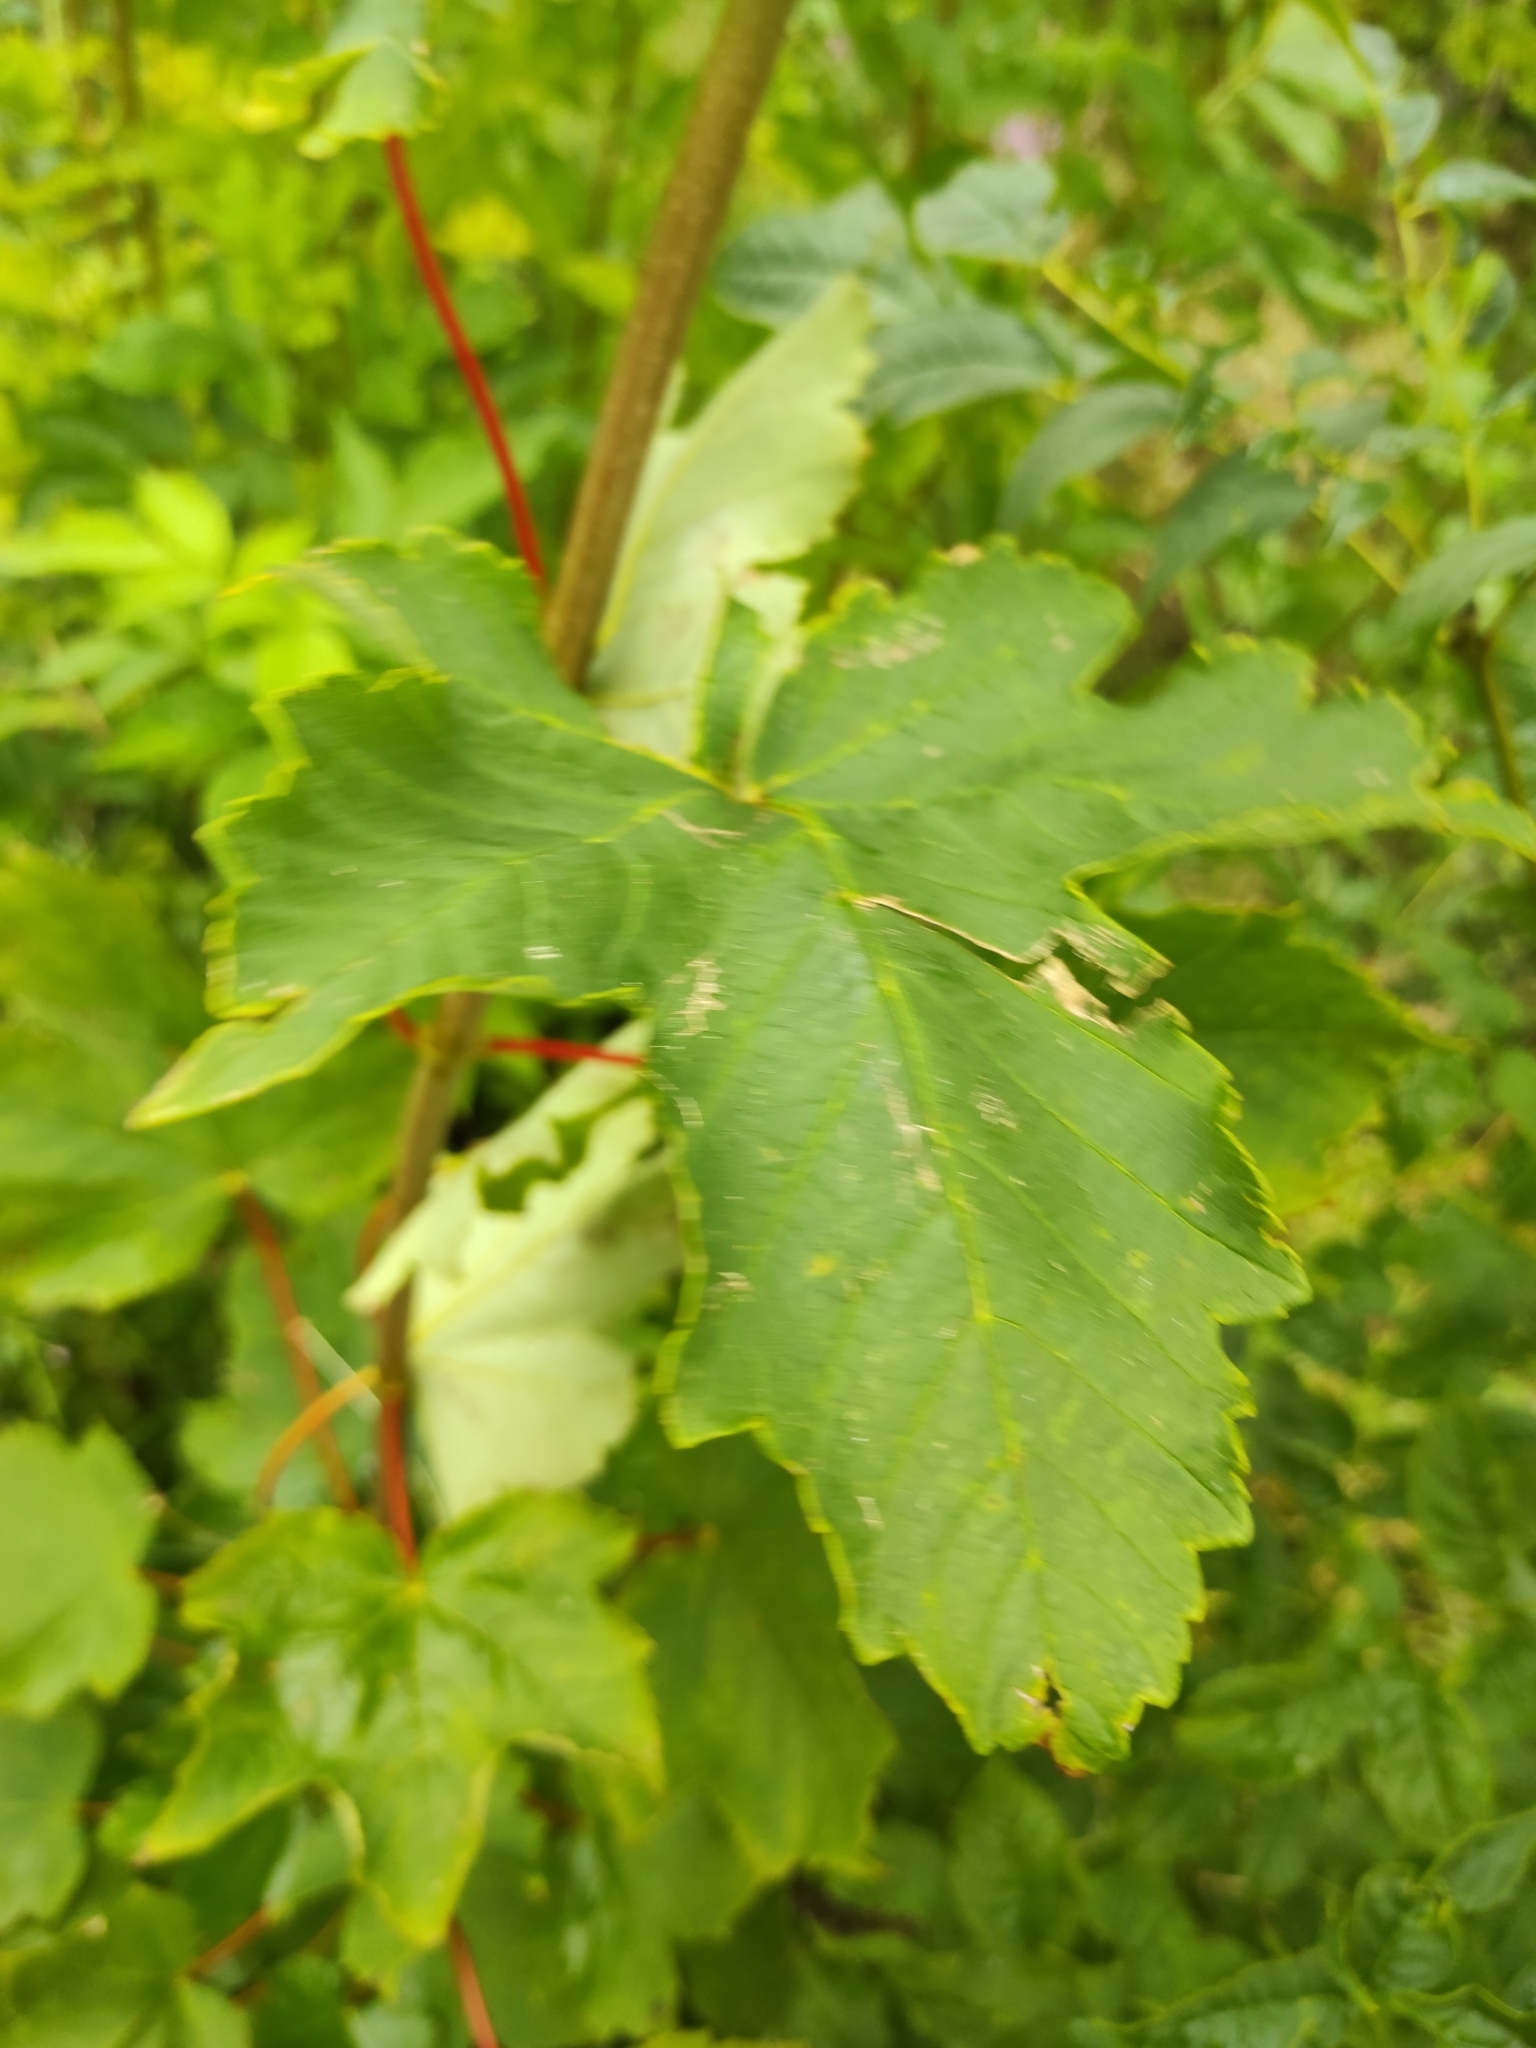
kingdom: Plantae
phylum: Tracheophyta
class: Magnoliopsida
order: Sapindales
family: Sapindaceae
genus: Acer
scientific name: Acer pseudoplatanus
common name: Sycamore
